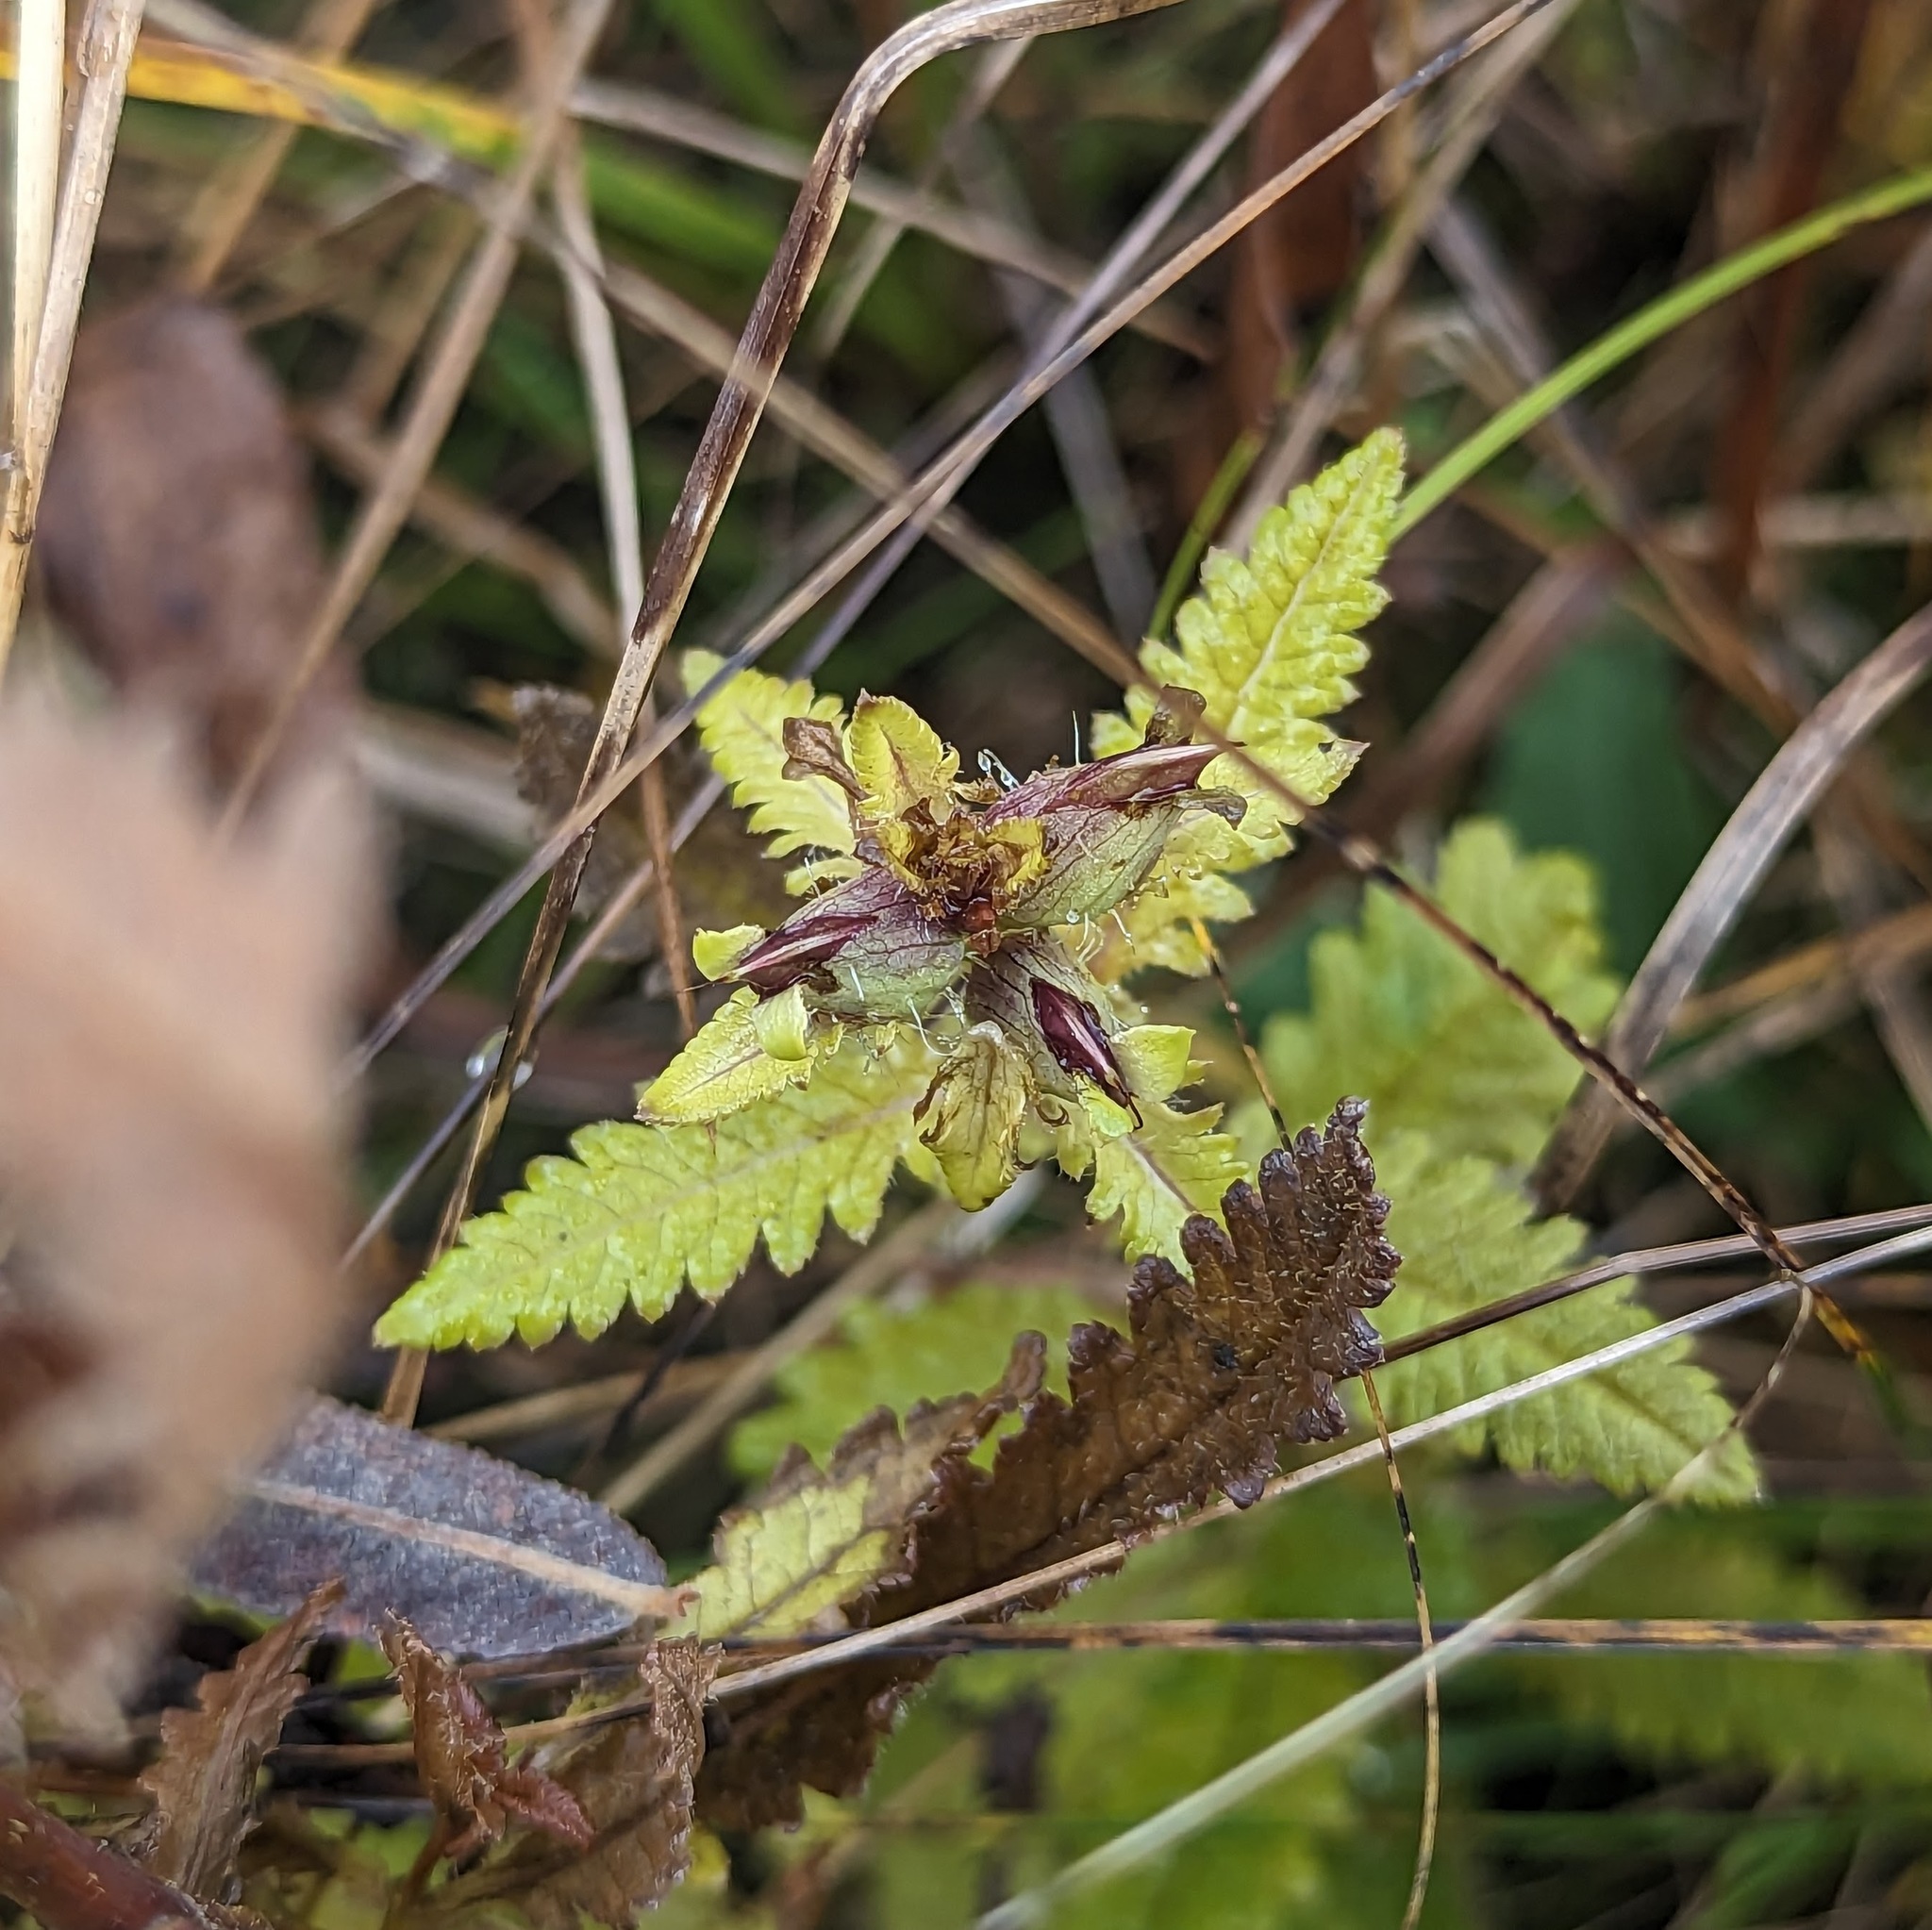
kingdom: Plantae
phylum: Tracheophyta
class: Magnoliopsida
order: Lamiales
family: Orobanchaceae
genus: Pedicularis
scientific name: Pedicularis lanceolata
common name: Swamp lousewort
